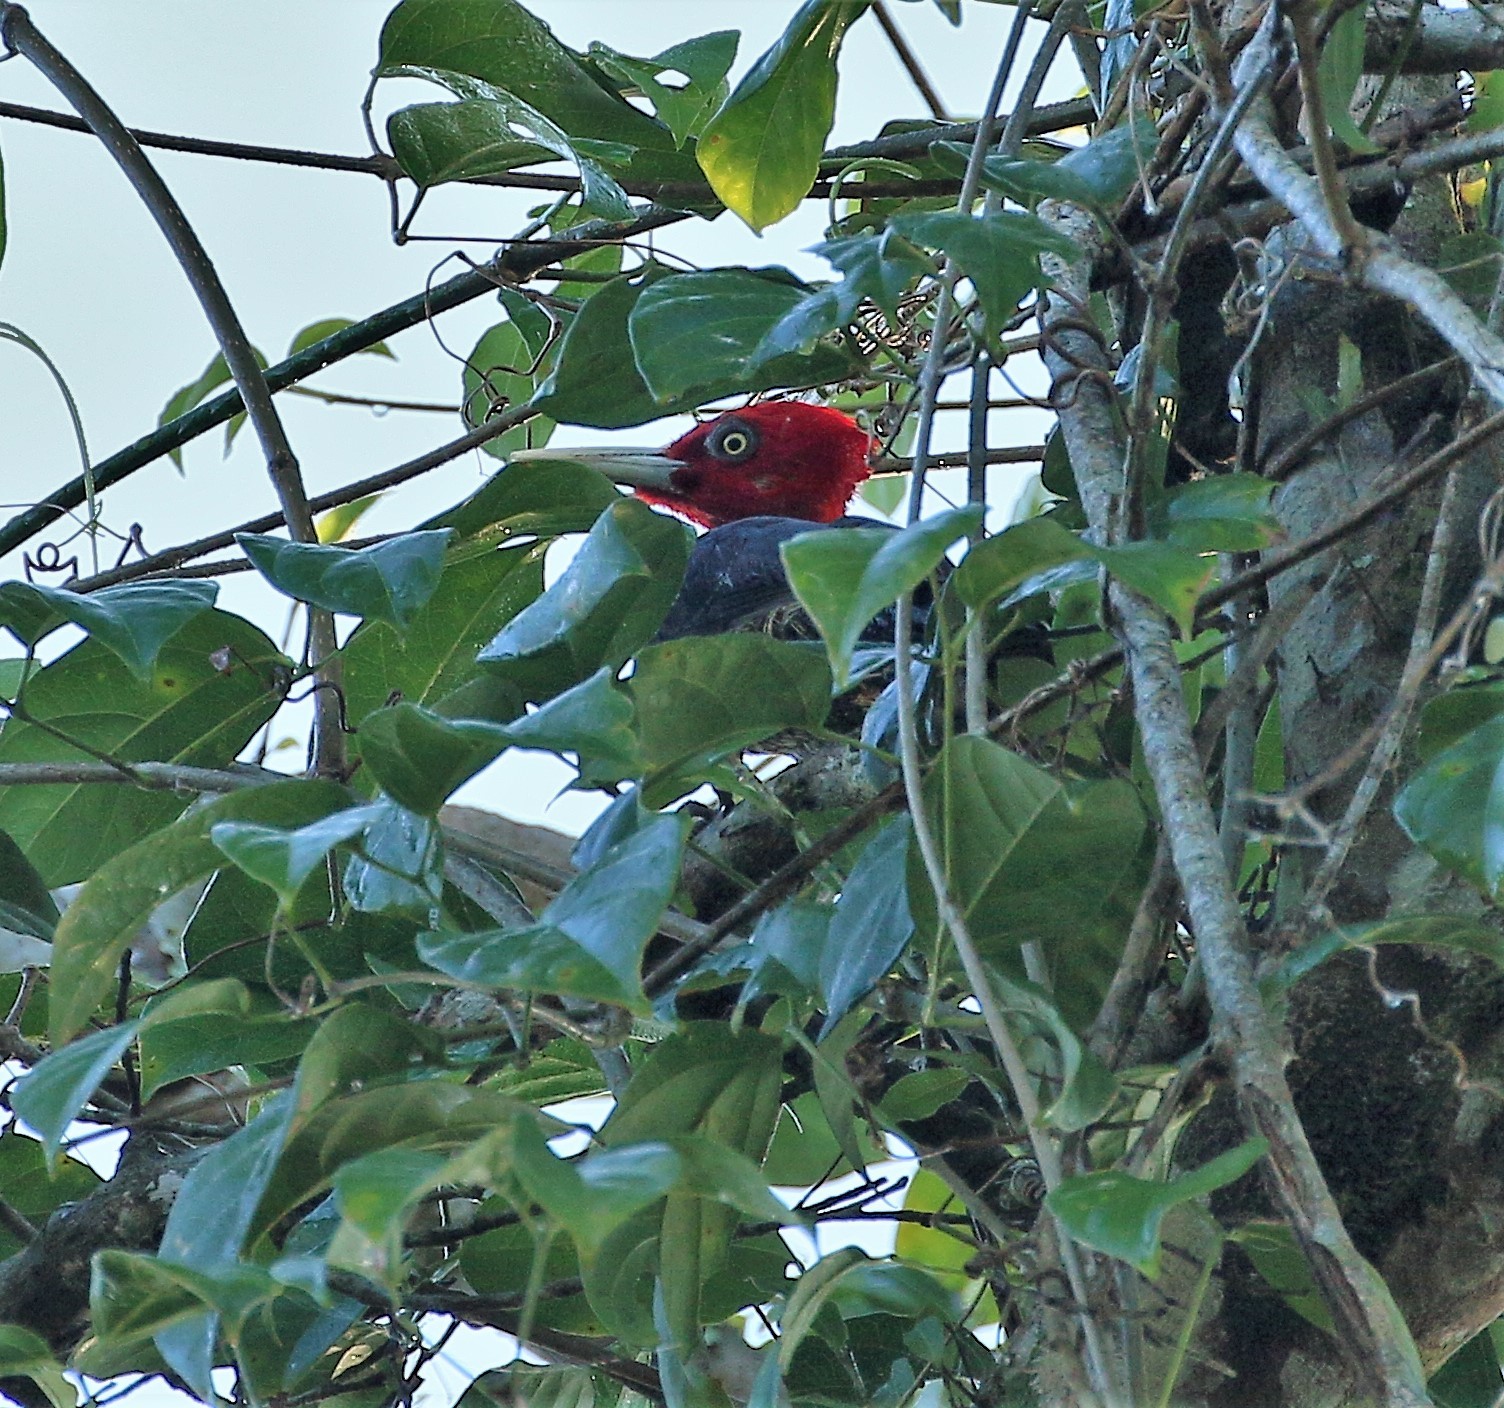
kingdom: Animalia
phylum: Chordata
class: Aves
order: Piciformes
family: Picidae
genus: Campephilus
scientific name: Campephilus guatemalensis
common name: Pale-billed woodpecker
